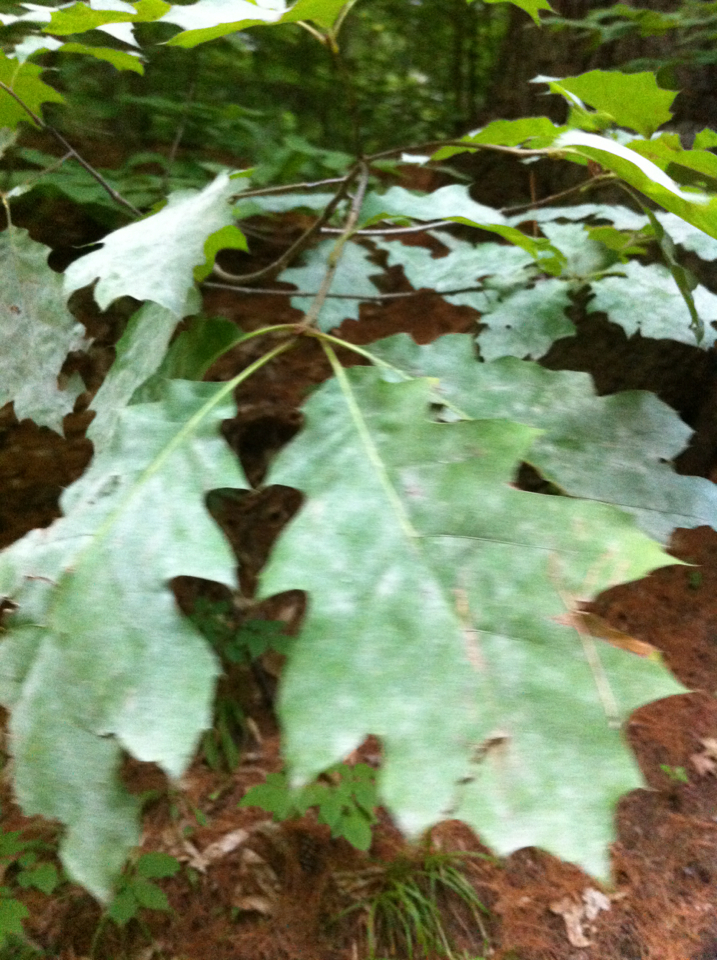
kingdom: Plantae
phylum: Tracheophyta
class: Magnoliopsida
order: Fagales
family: Fagaceae
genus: Quercus
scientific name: Quercus rubra
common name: Red oak
